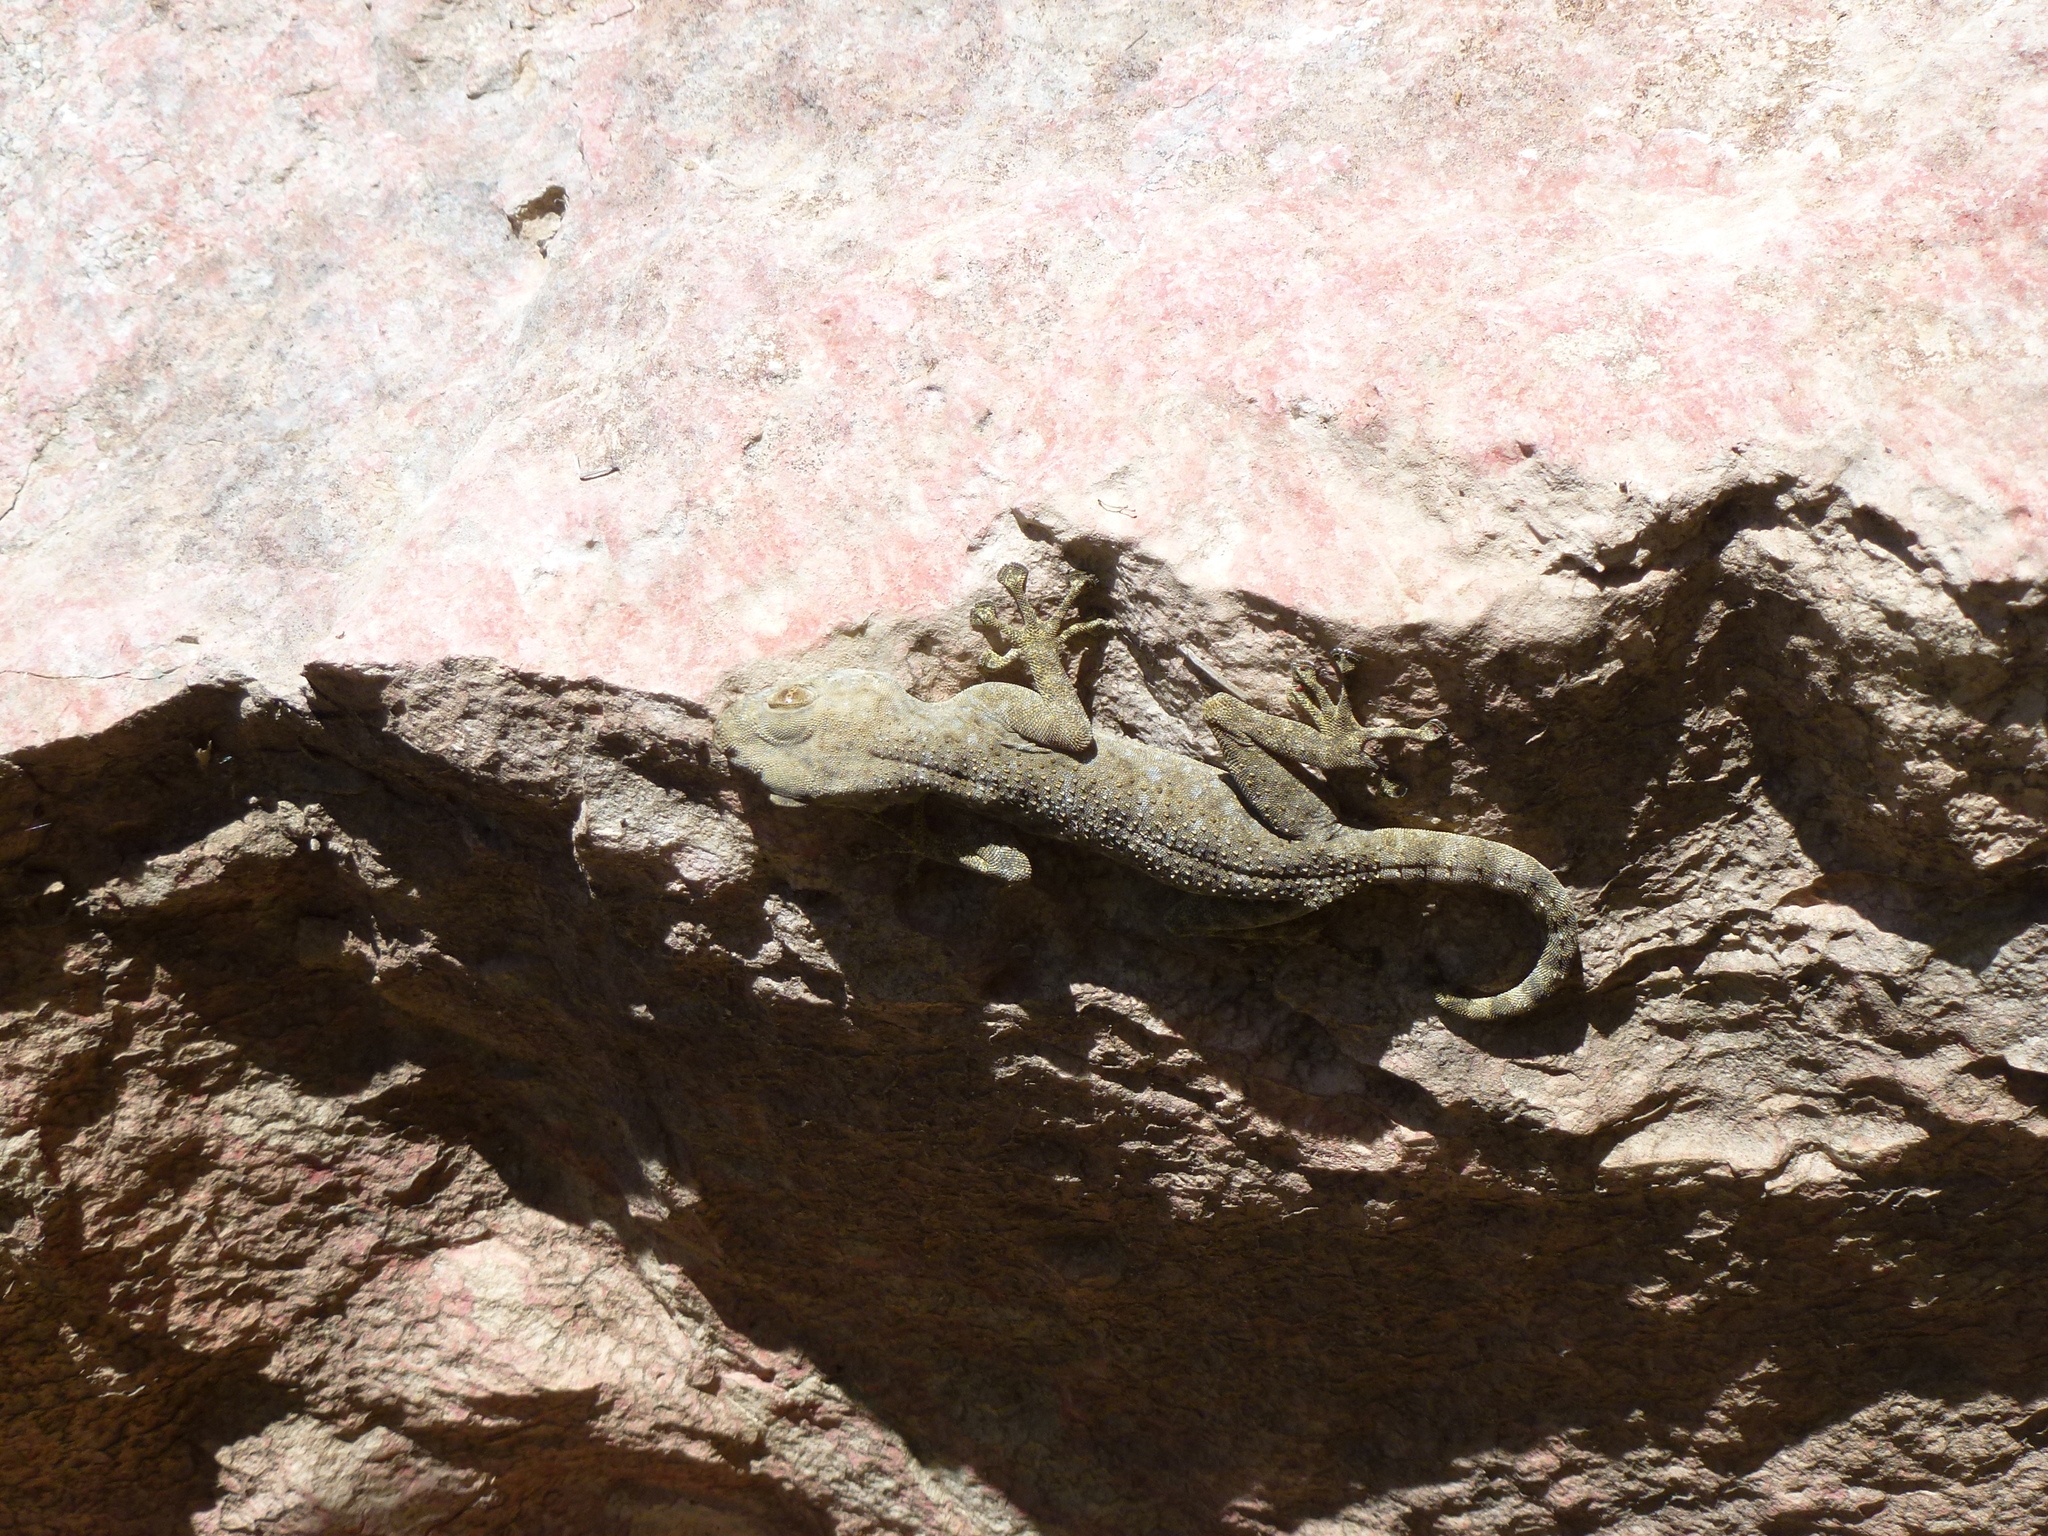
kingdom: Animalia
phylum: Chordata
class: Squamata
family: Phyllodactylidae
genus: Ptyodactylus
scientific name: Ptyodactylus guttatus
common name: Sinai fan-fingered gecko
